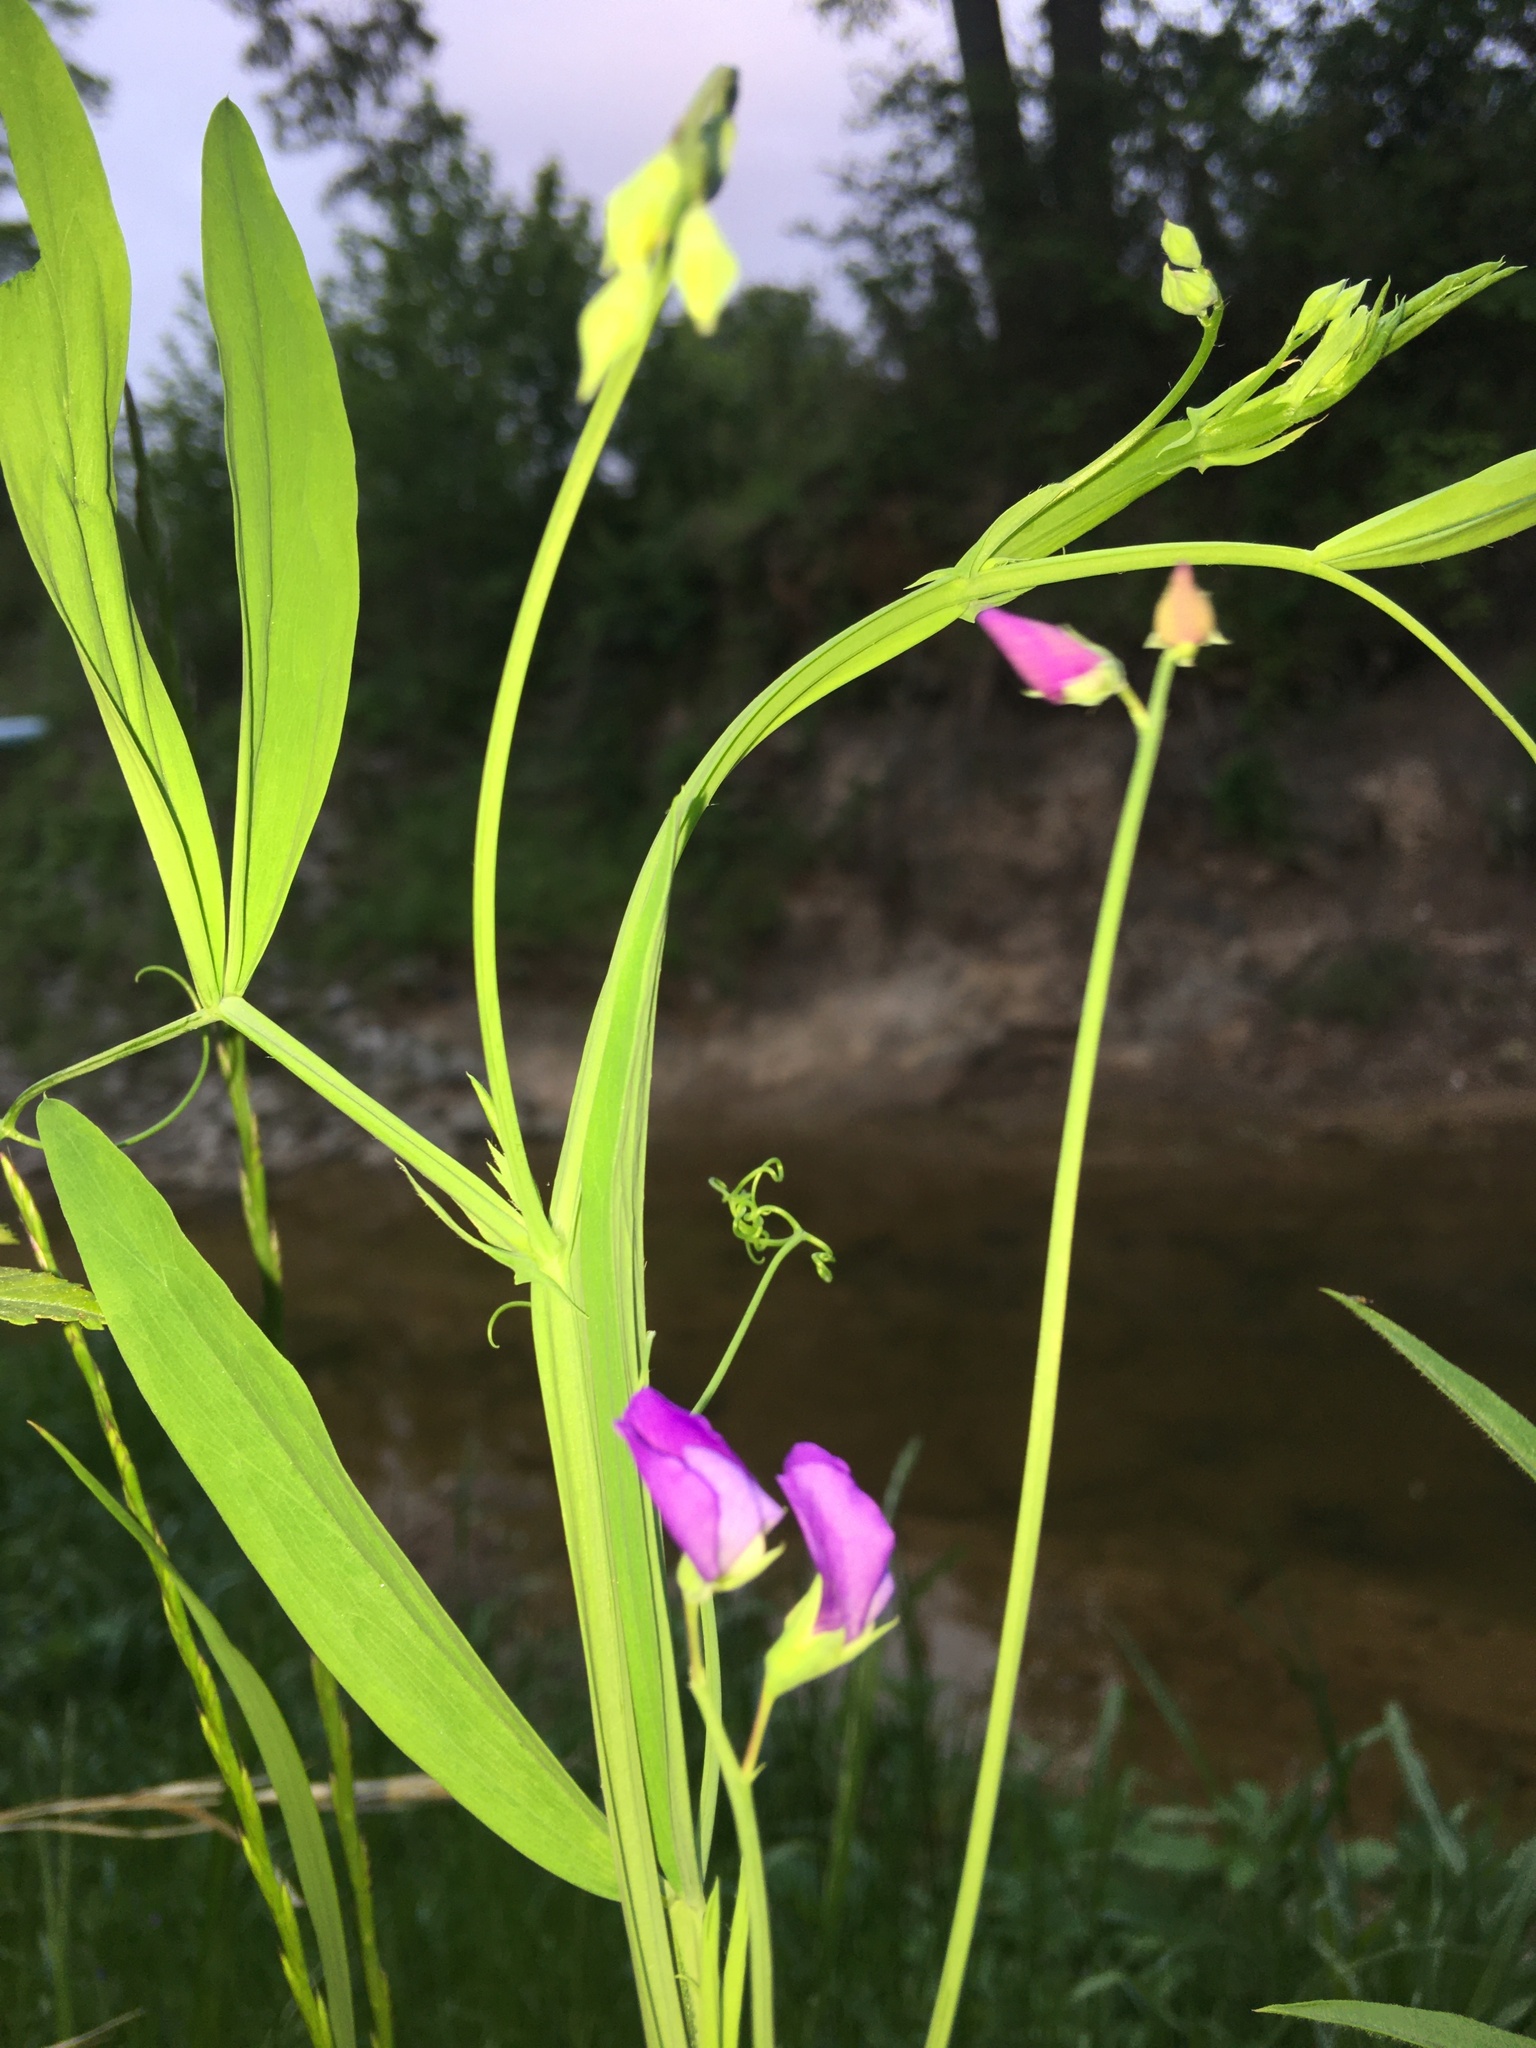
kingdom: Plantae
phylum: Tracheophyta
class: Magnoliopsida
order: Fabales
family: Fabaceae
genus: Lathyrus
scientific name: Lathyrus hirsutus
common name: Hairy vetchling
